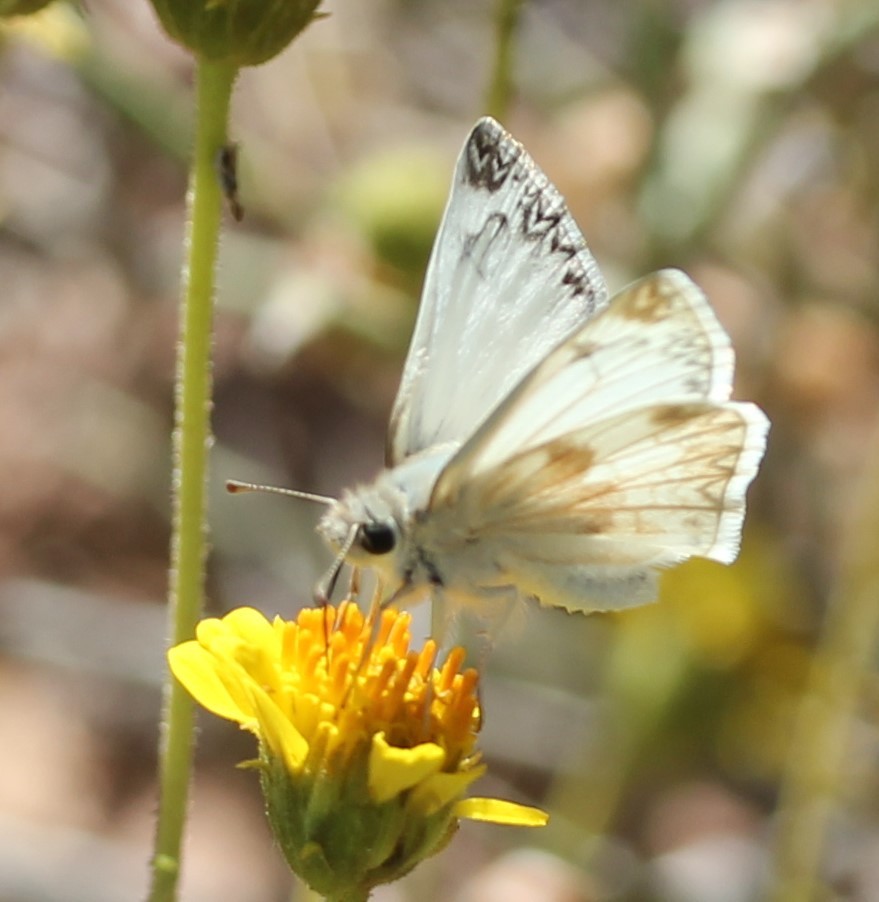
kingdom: Animalia
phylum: Arthropoda
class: Insecta
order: Lepidoptera
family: Hesperiidae
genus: Heliopetes
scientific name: Heliopetes ericetorum
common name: Northern white-skipper
